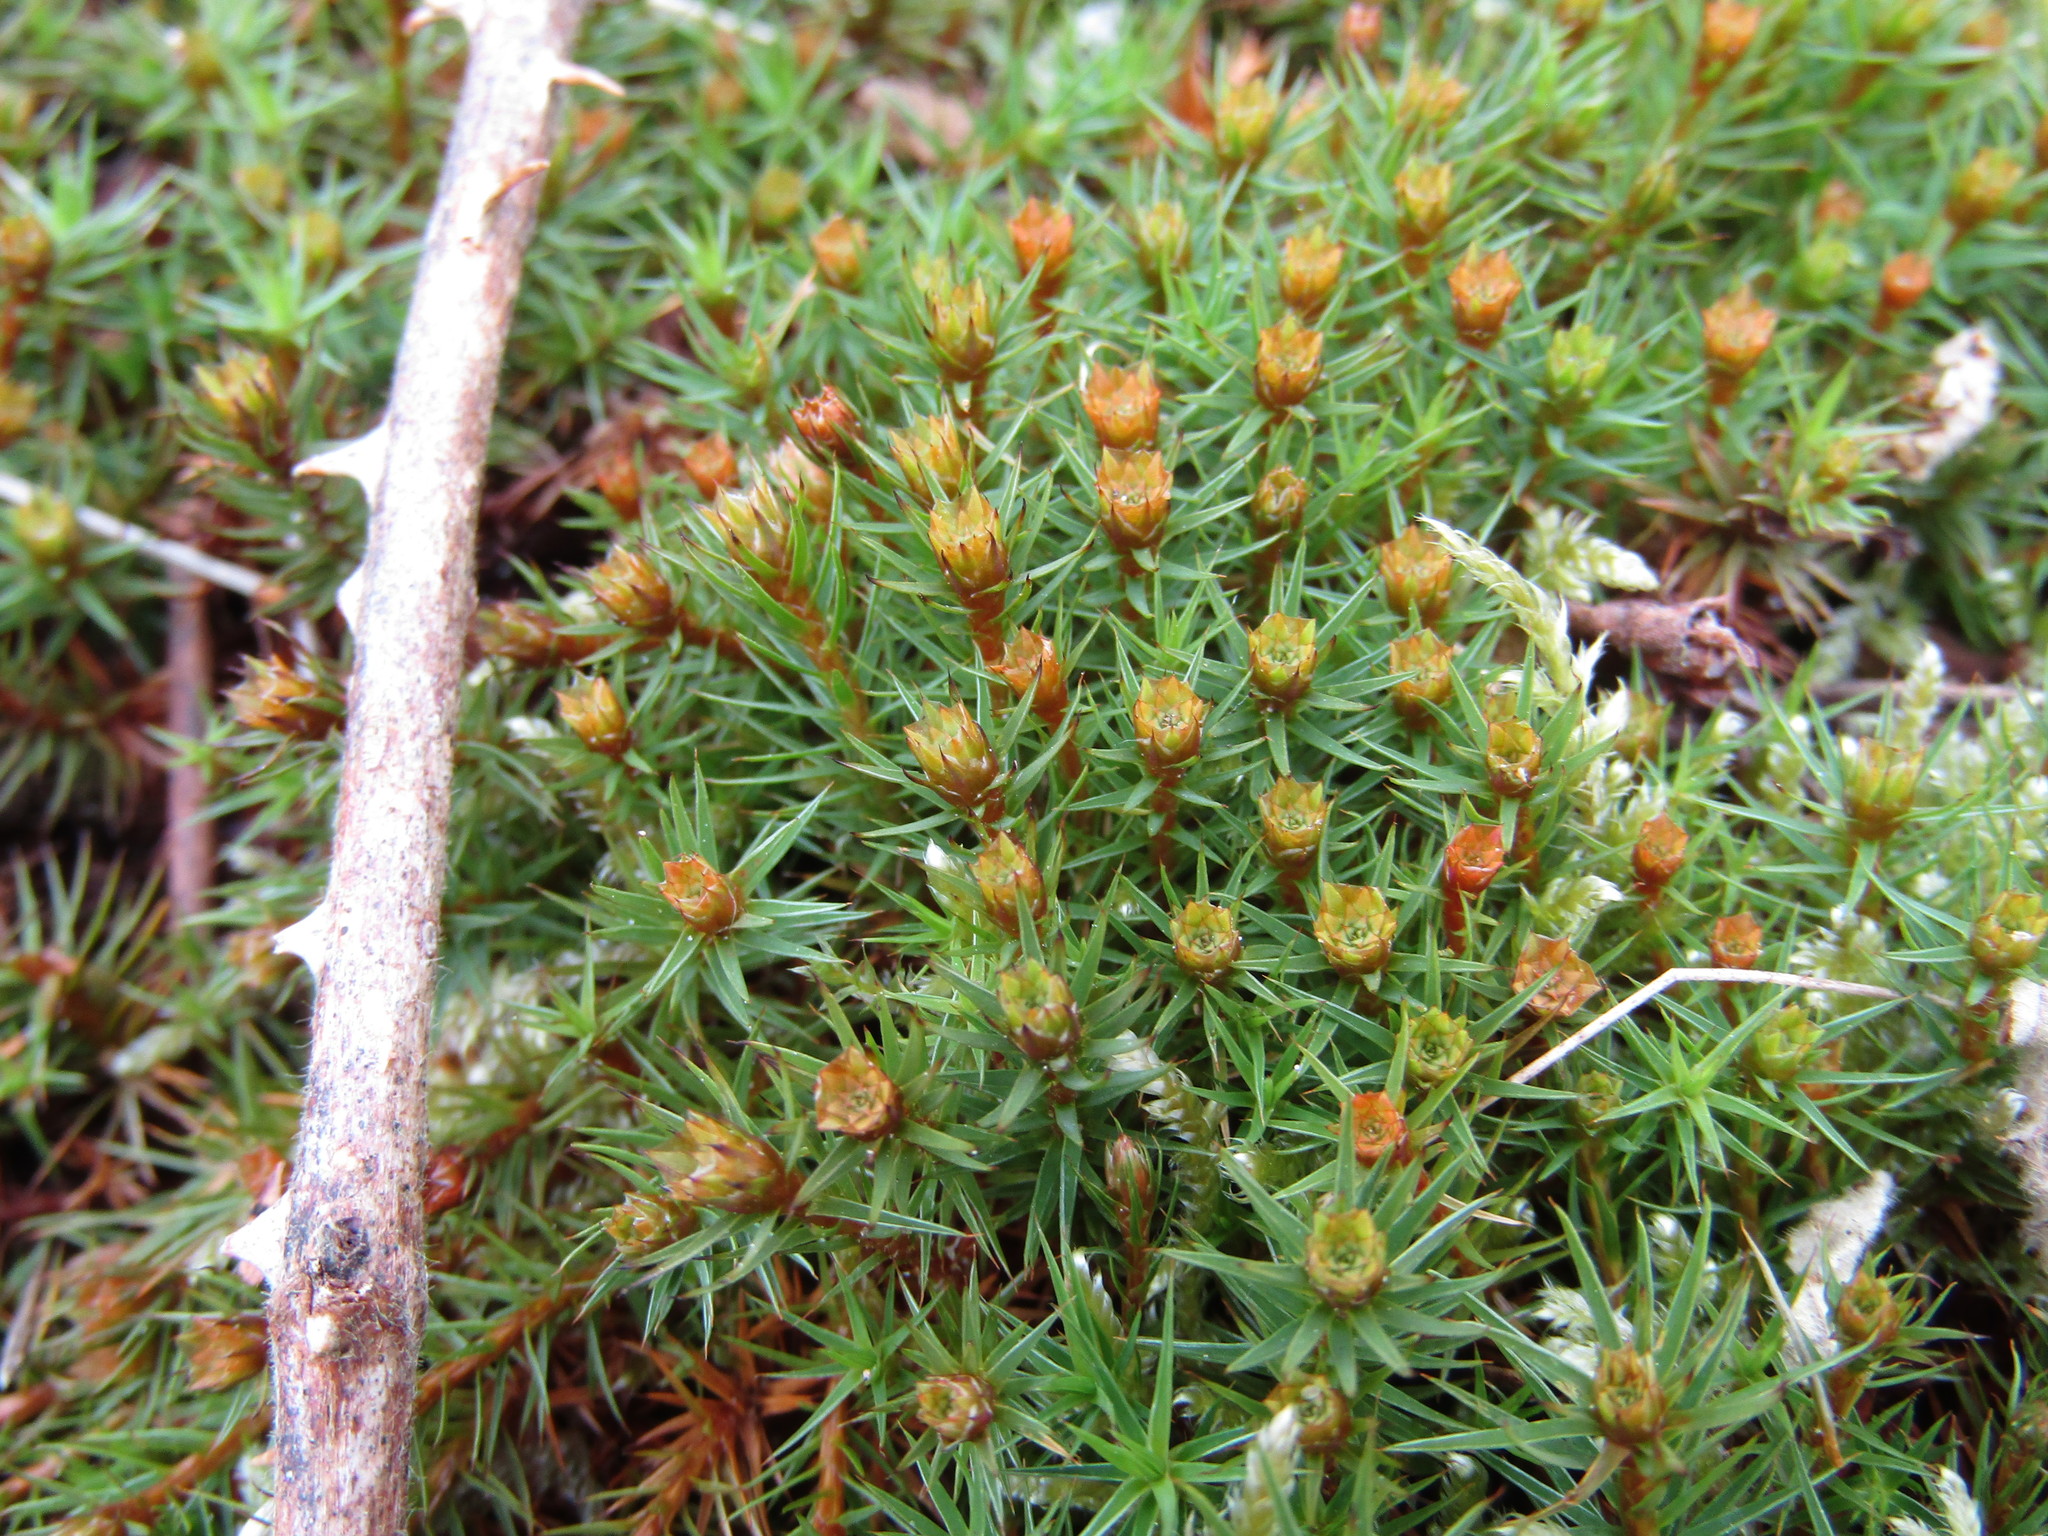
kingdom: Plantae
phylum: Bryophyta
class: Polytrichopsida
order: Polytrichales
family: Polytrichaceae
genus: Polytrichum
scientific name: Polytrichum juniperinum
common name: Juniper haircap moss
